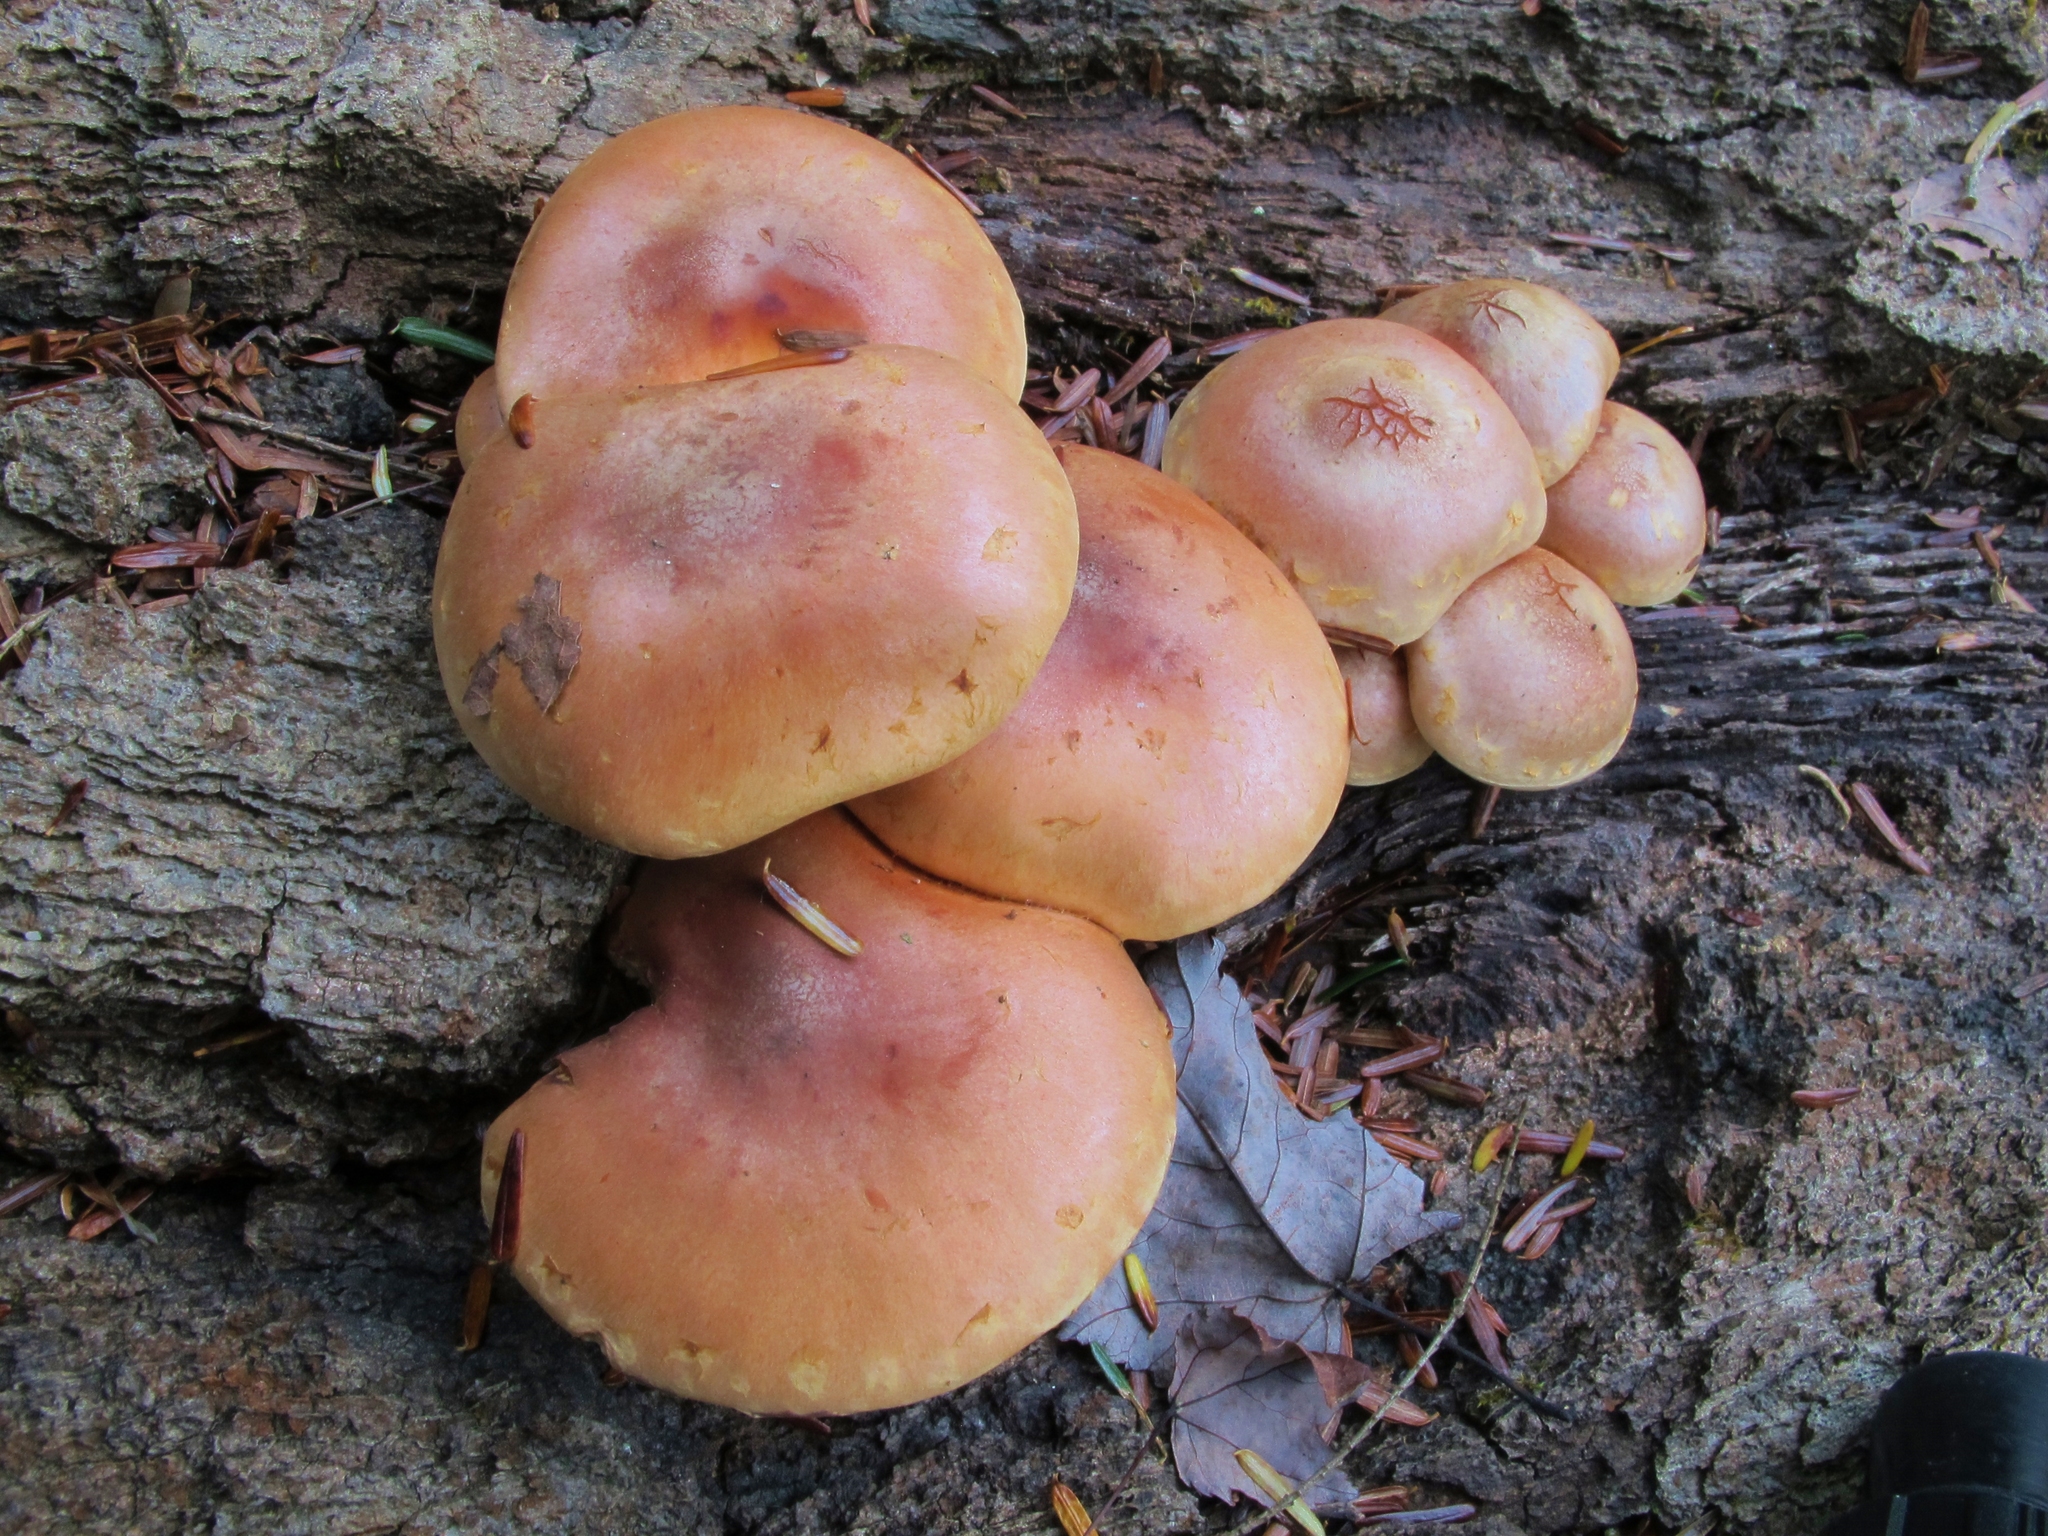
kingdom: Fungi
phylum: Basidiomycota
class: Agaricomycetes
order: Agaricales
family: Strophariaceae
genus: Hypholoma
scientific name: Hypholoma lateritium
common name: Brick caps
